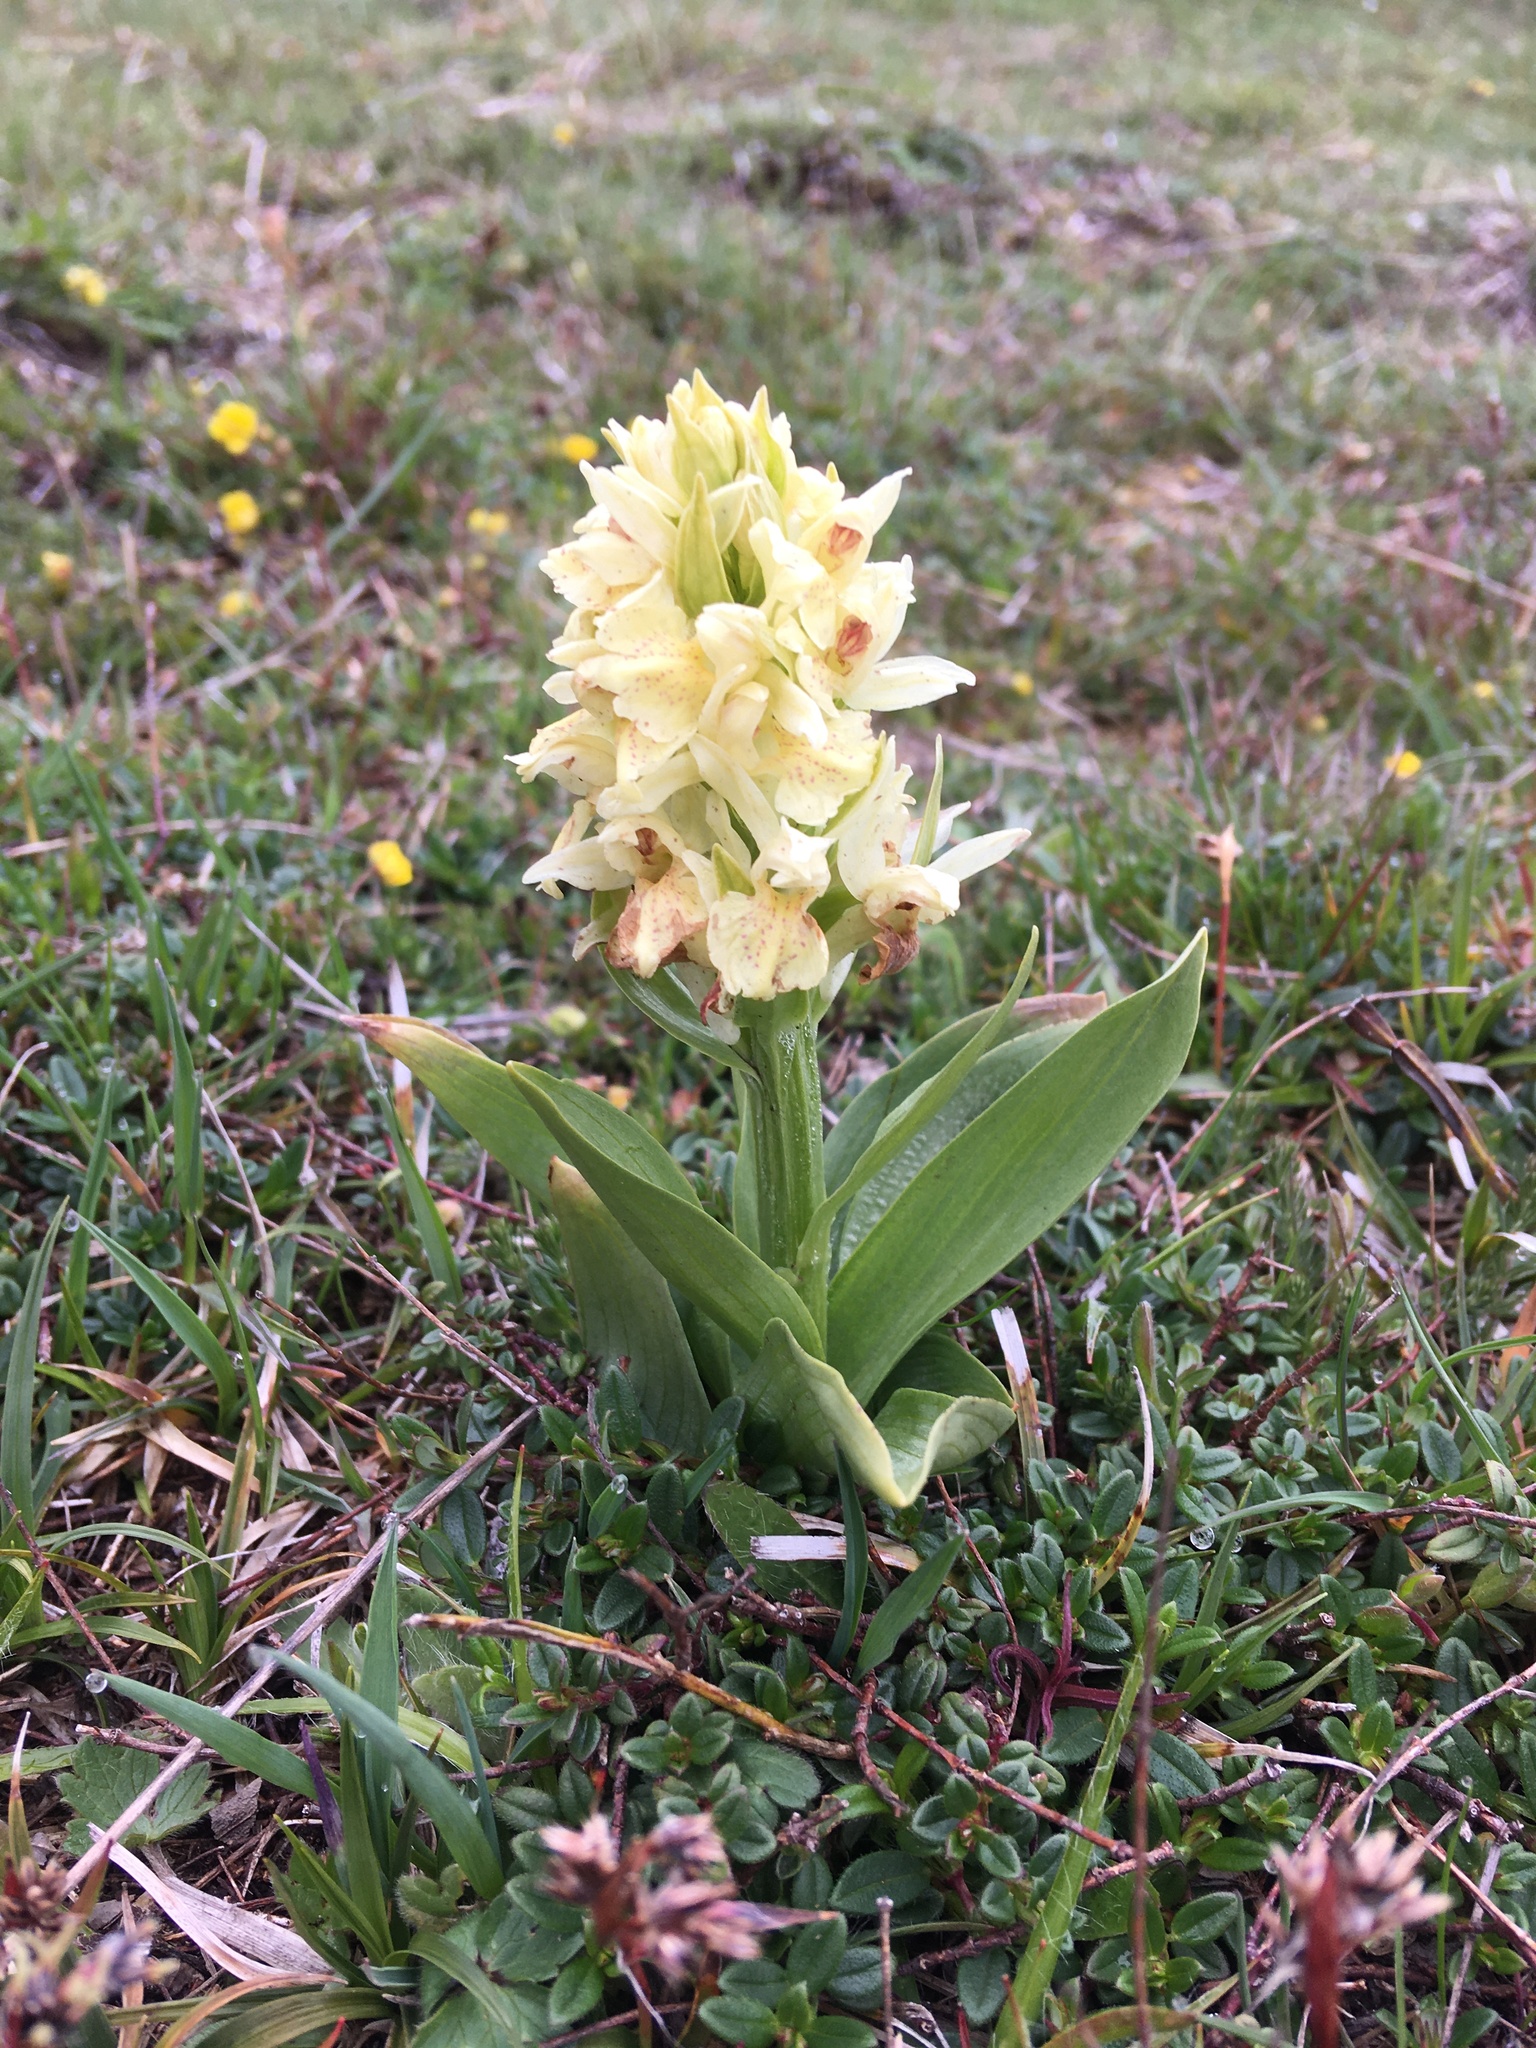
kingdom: Plantae
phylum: Tracheophyta
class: Liliopsida
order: Asparagales
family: Orchidaceae
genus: Dactylorhiza
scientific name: Dactylorhiza sambucina
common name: Elder-flowered orchid
